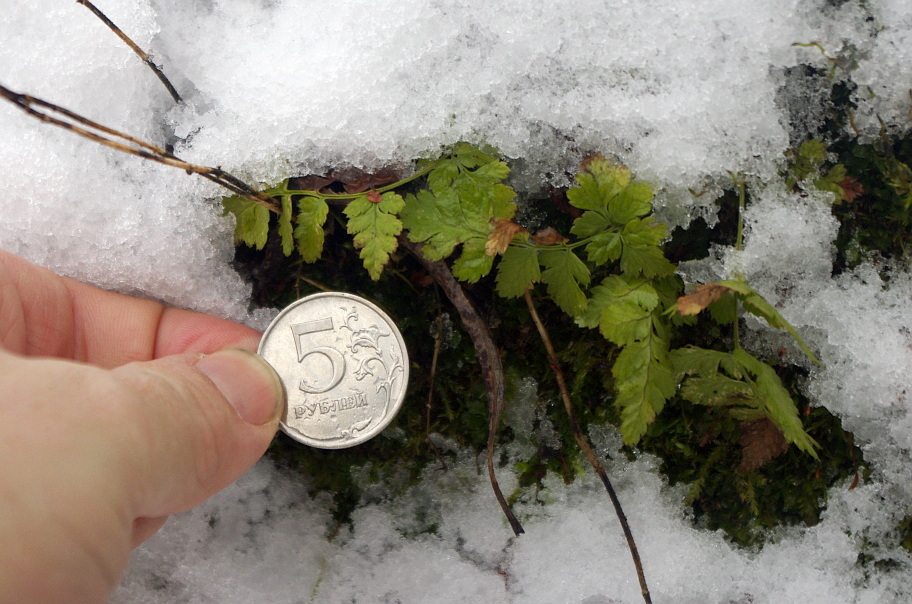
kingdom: Plantae
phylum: Tracheophyta
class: Polypodiopsida
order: Polypodiales
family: Dryopteridaceae
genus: Dryopteris
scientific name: Dryopteris carthusiana
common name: Narrow buckler-fern
